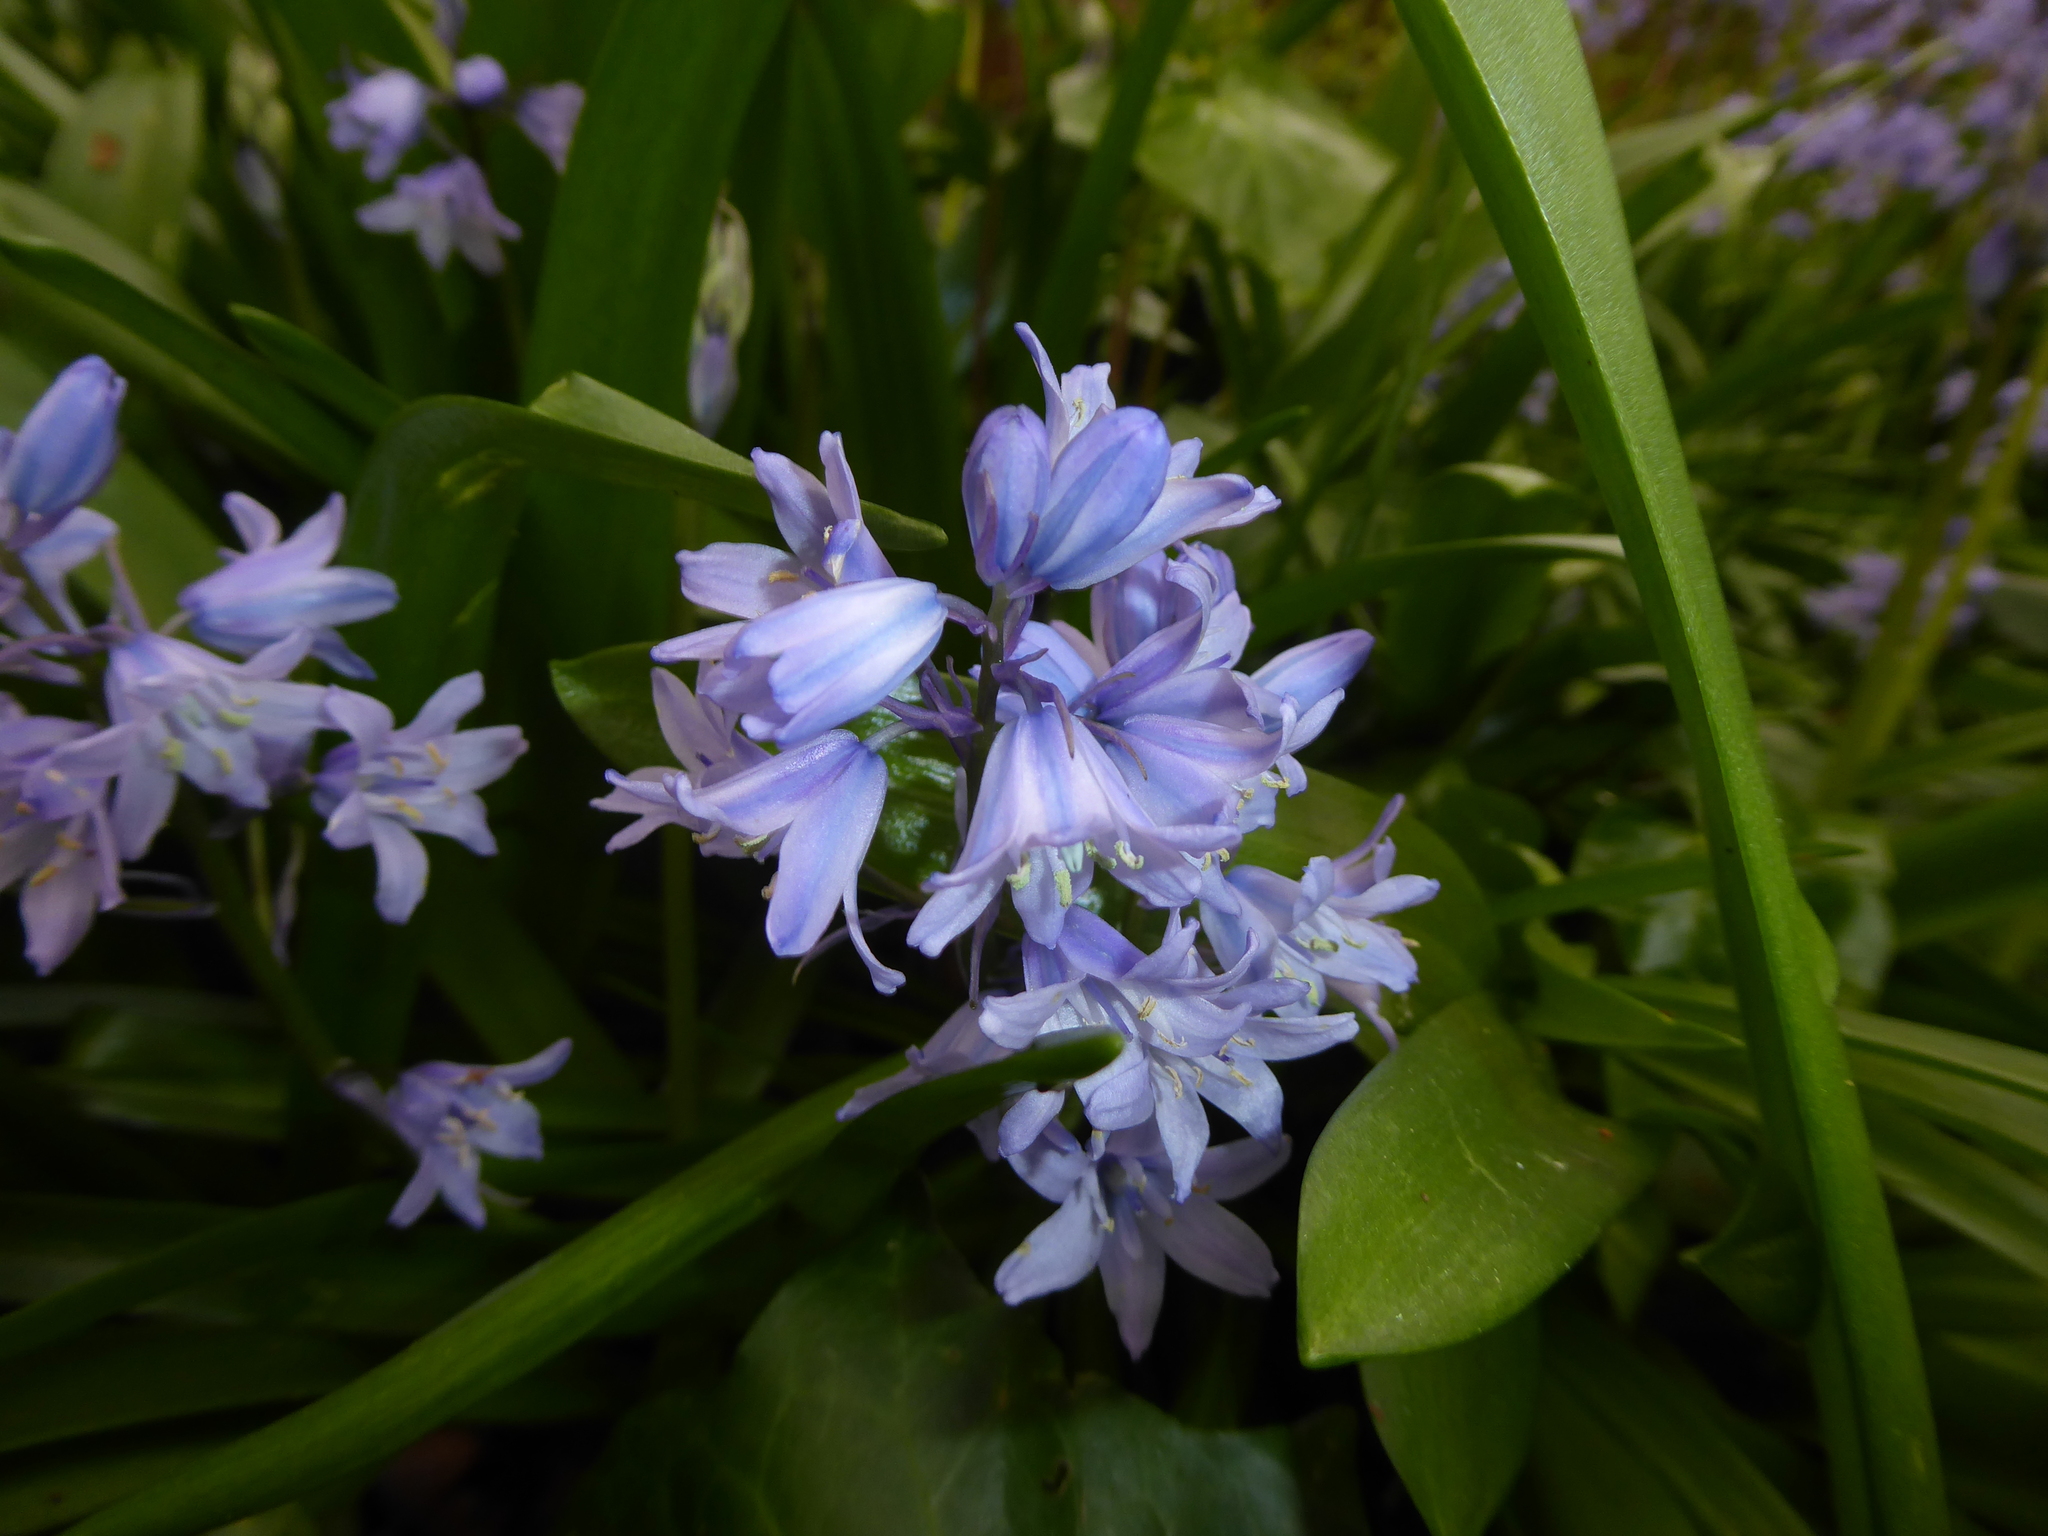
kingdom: Plantae
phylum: Tracheophyta
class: Liliopsida
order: Asparagales
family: Asparagaceae
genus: Hyacinthoides
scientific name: Hyacinthoides massartiana
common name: Hyacinthoides
